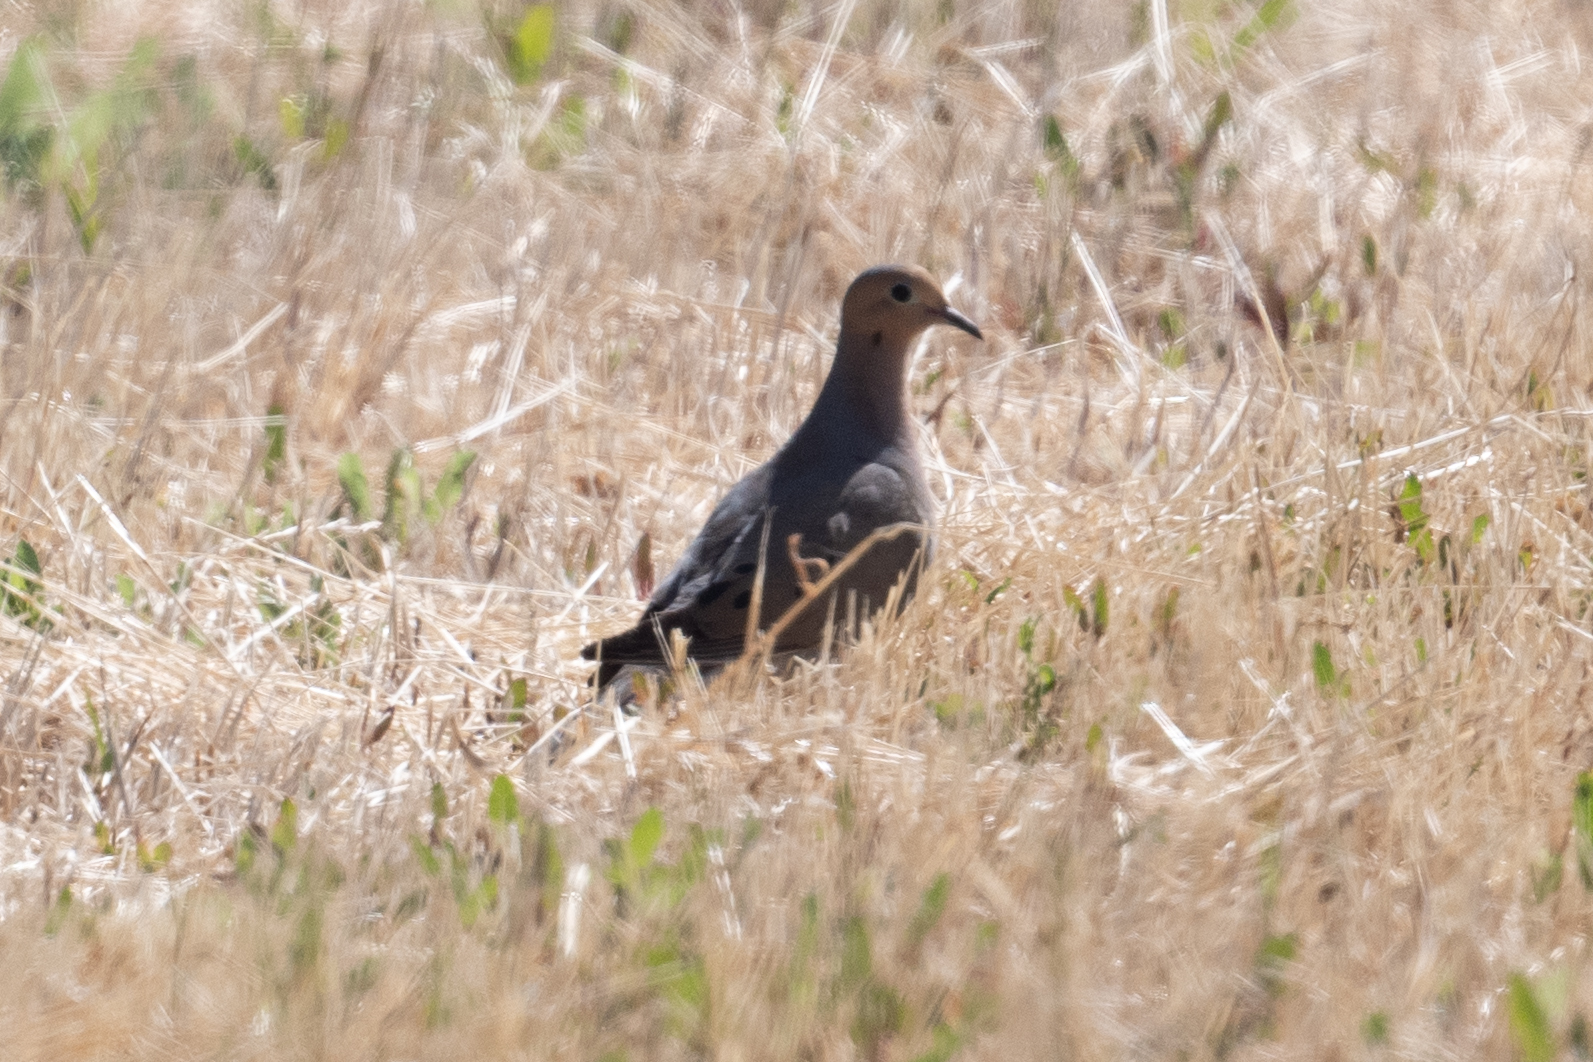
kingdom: Animalia
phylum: Chordata
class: Aves
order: Columbiformes
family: Columbidae
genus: Zenaida
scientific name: Zenaida macroura
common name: Mourning dove
